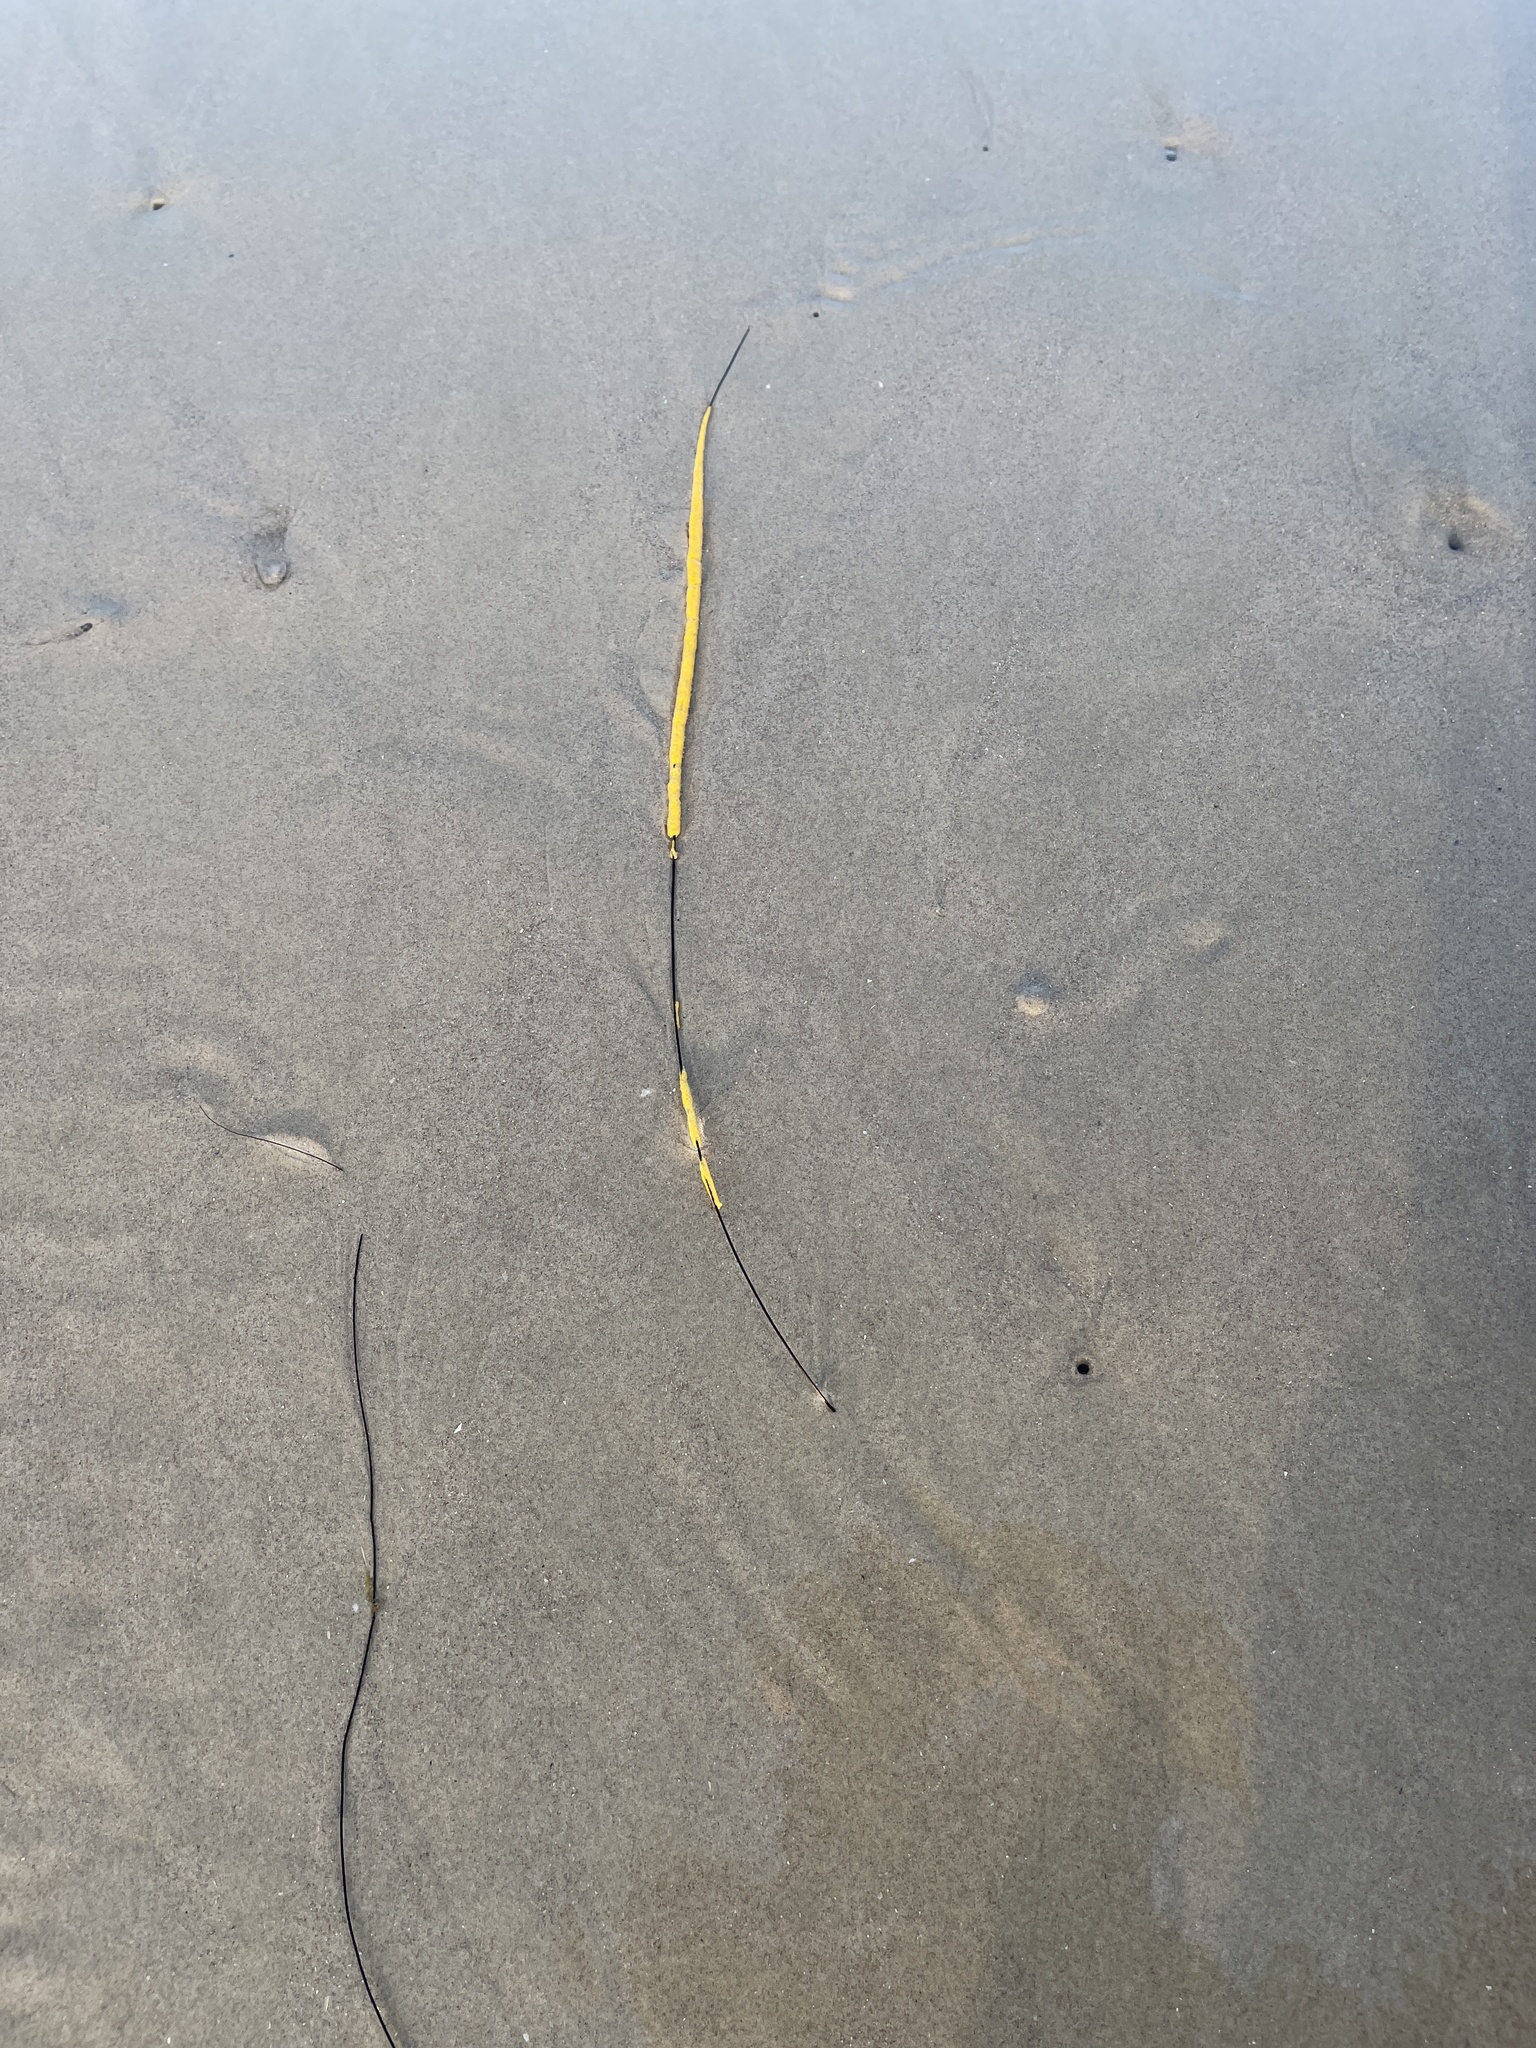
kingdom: Animalia
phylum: Cnidaria
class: Anthozoa
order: Malacalcyonacea
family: Gorgoniidae
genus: Leptogorgia
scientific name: Leptogorgia setacea
